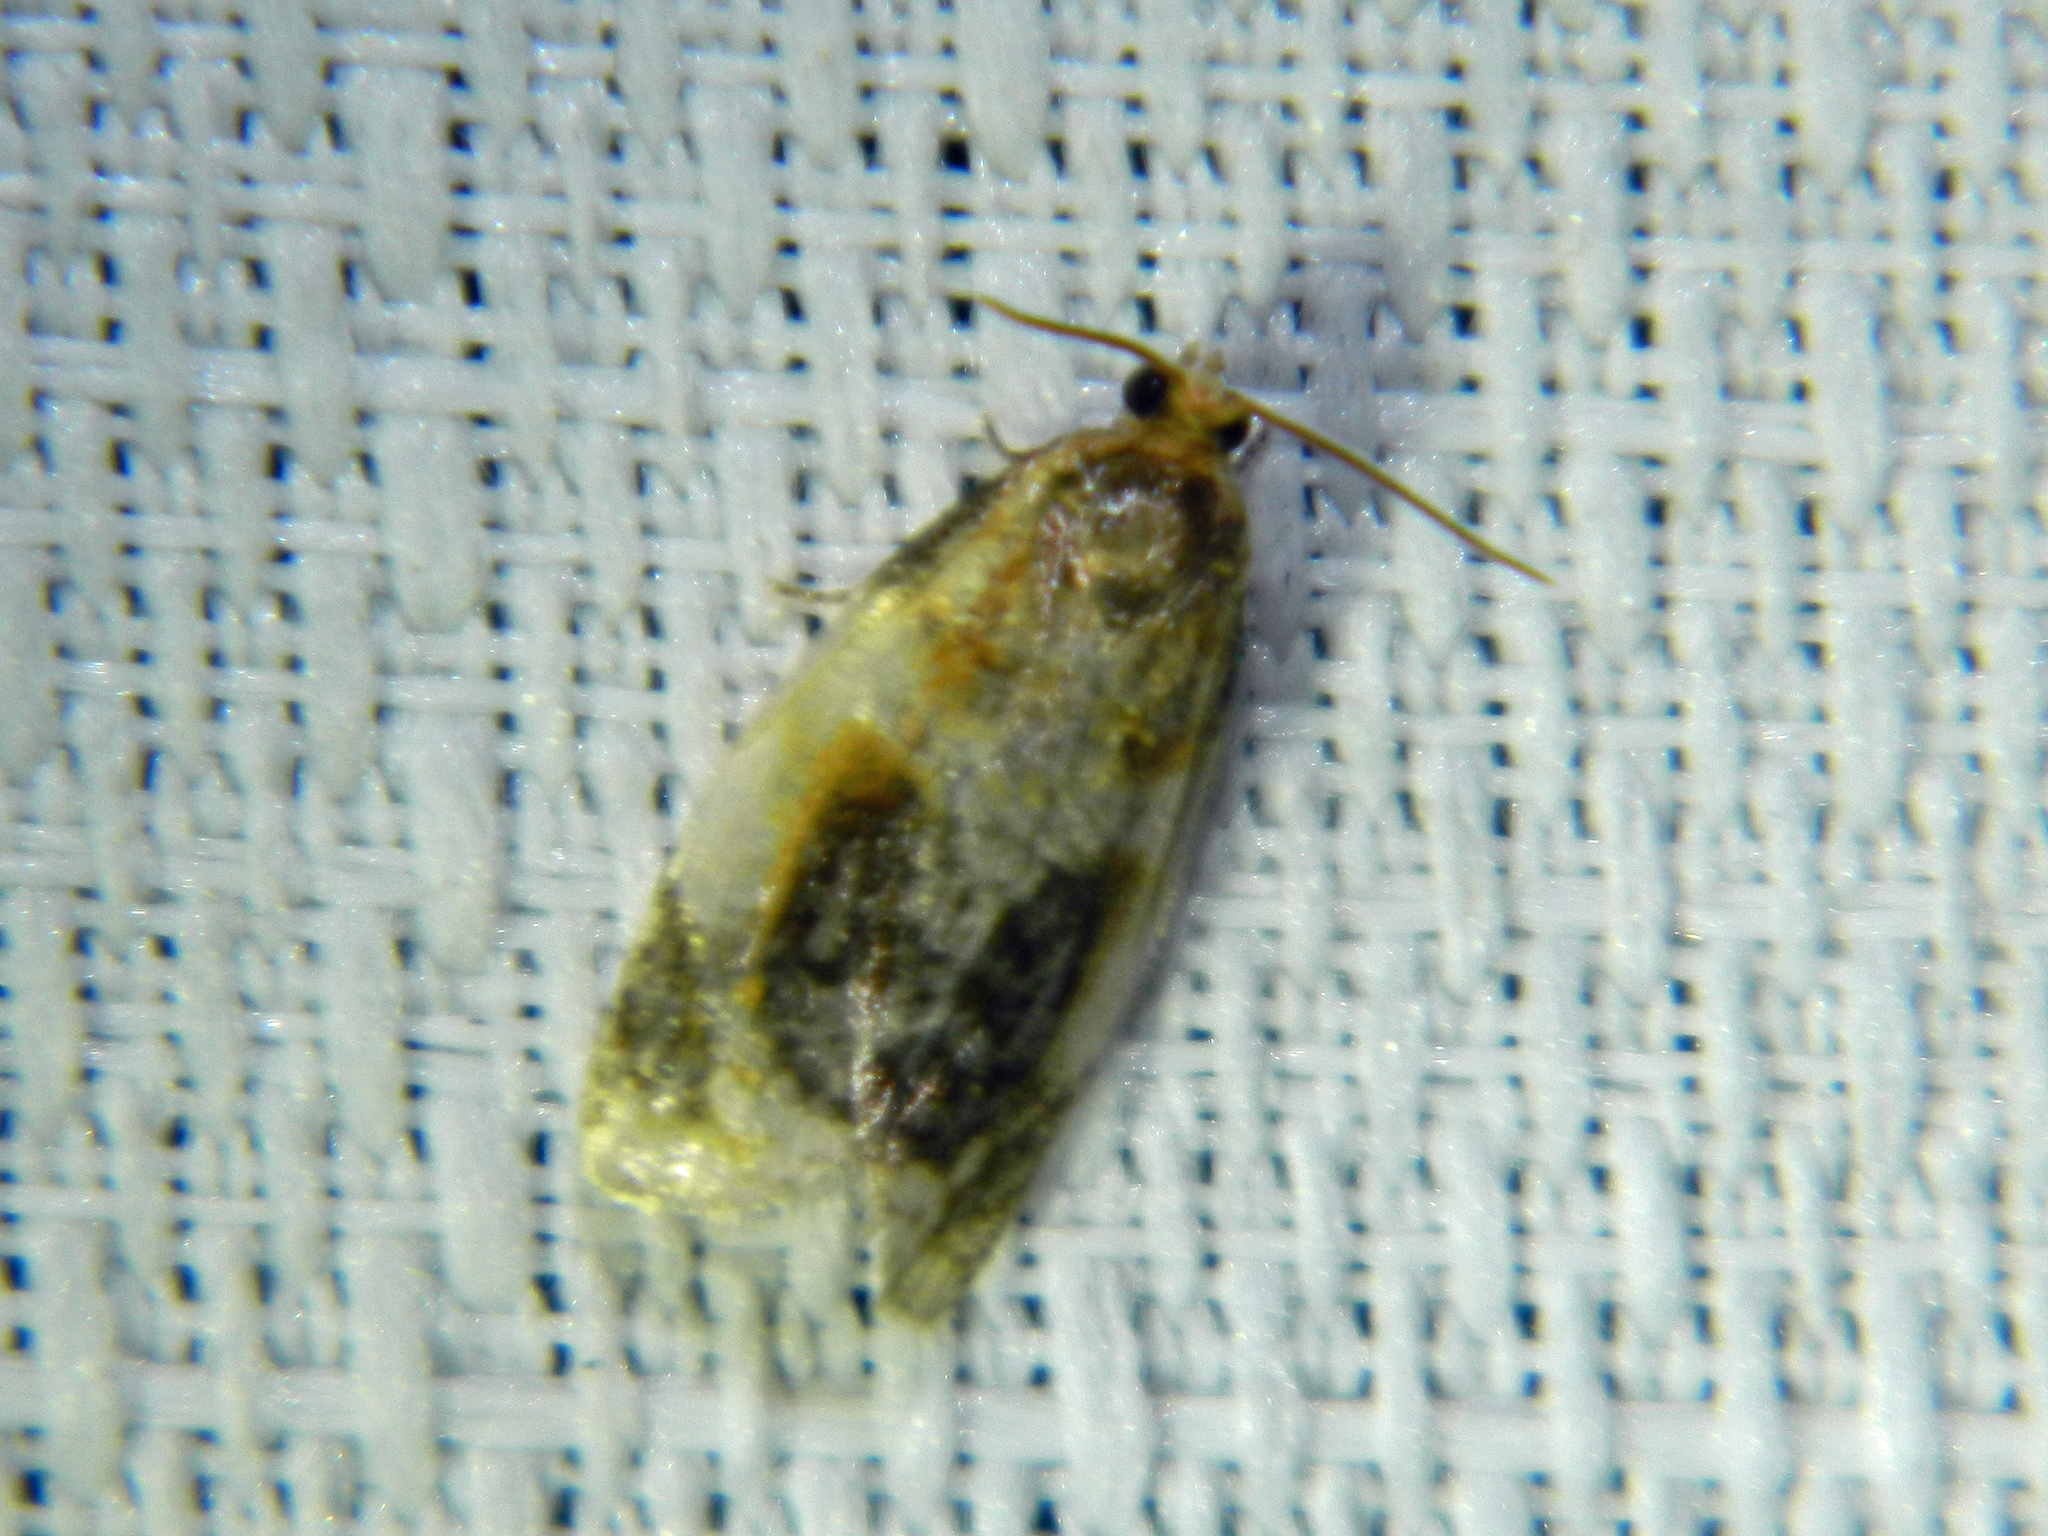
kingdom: Animalia
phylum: Arthropoda
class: Insecta
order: Lepidoptera
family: Tortricidae
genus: Clepsis
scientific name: Clepsis melaleucanus
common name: American apple tortrix
